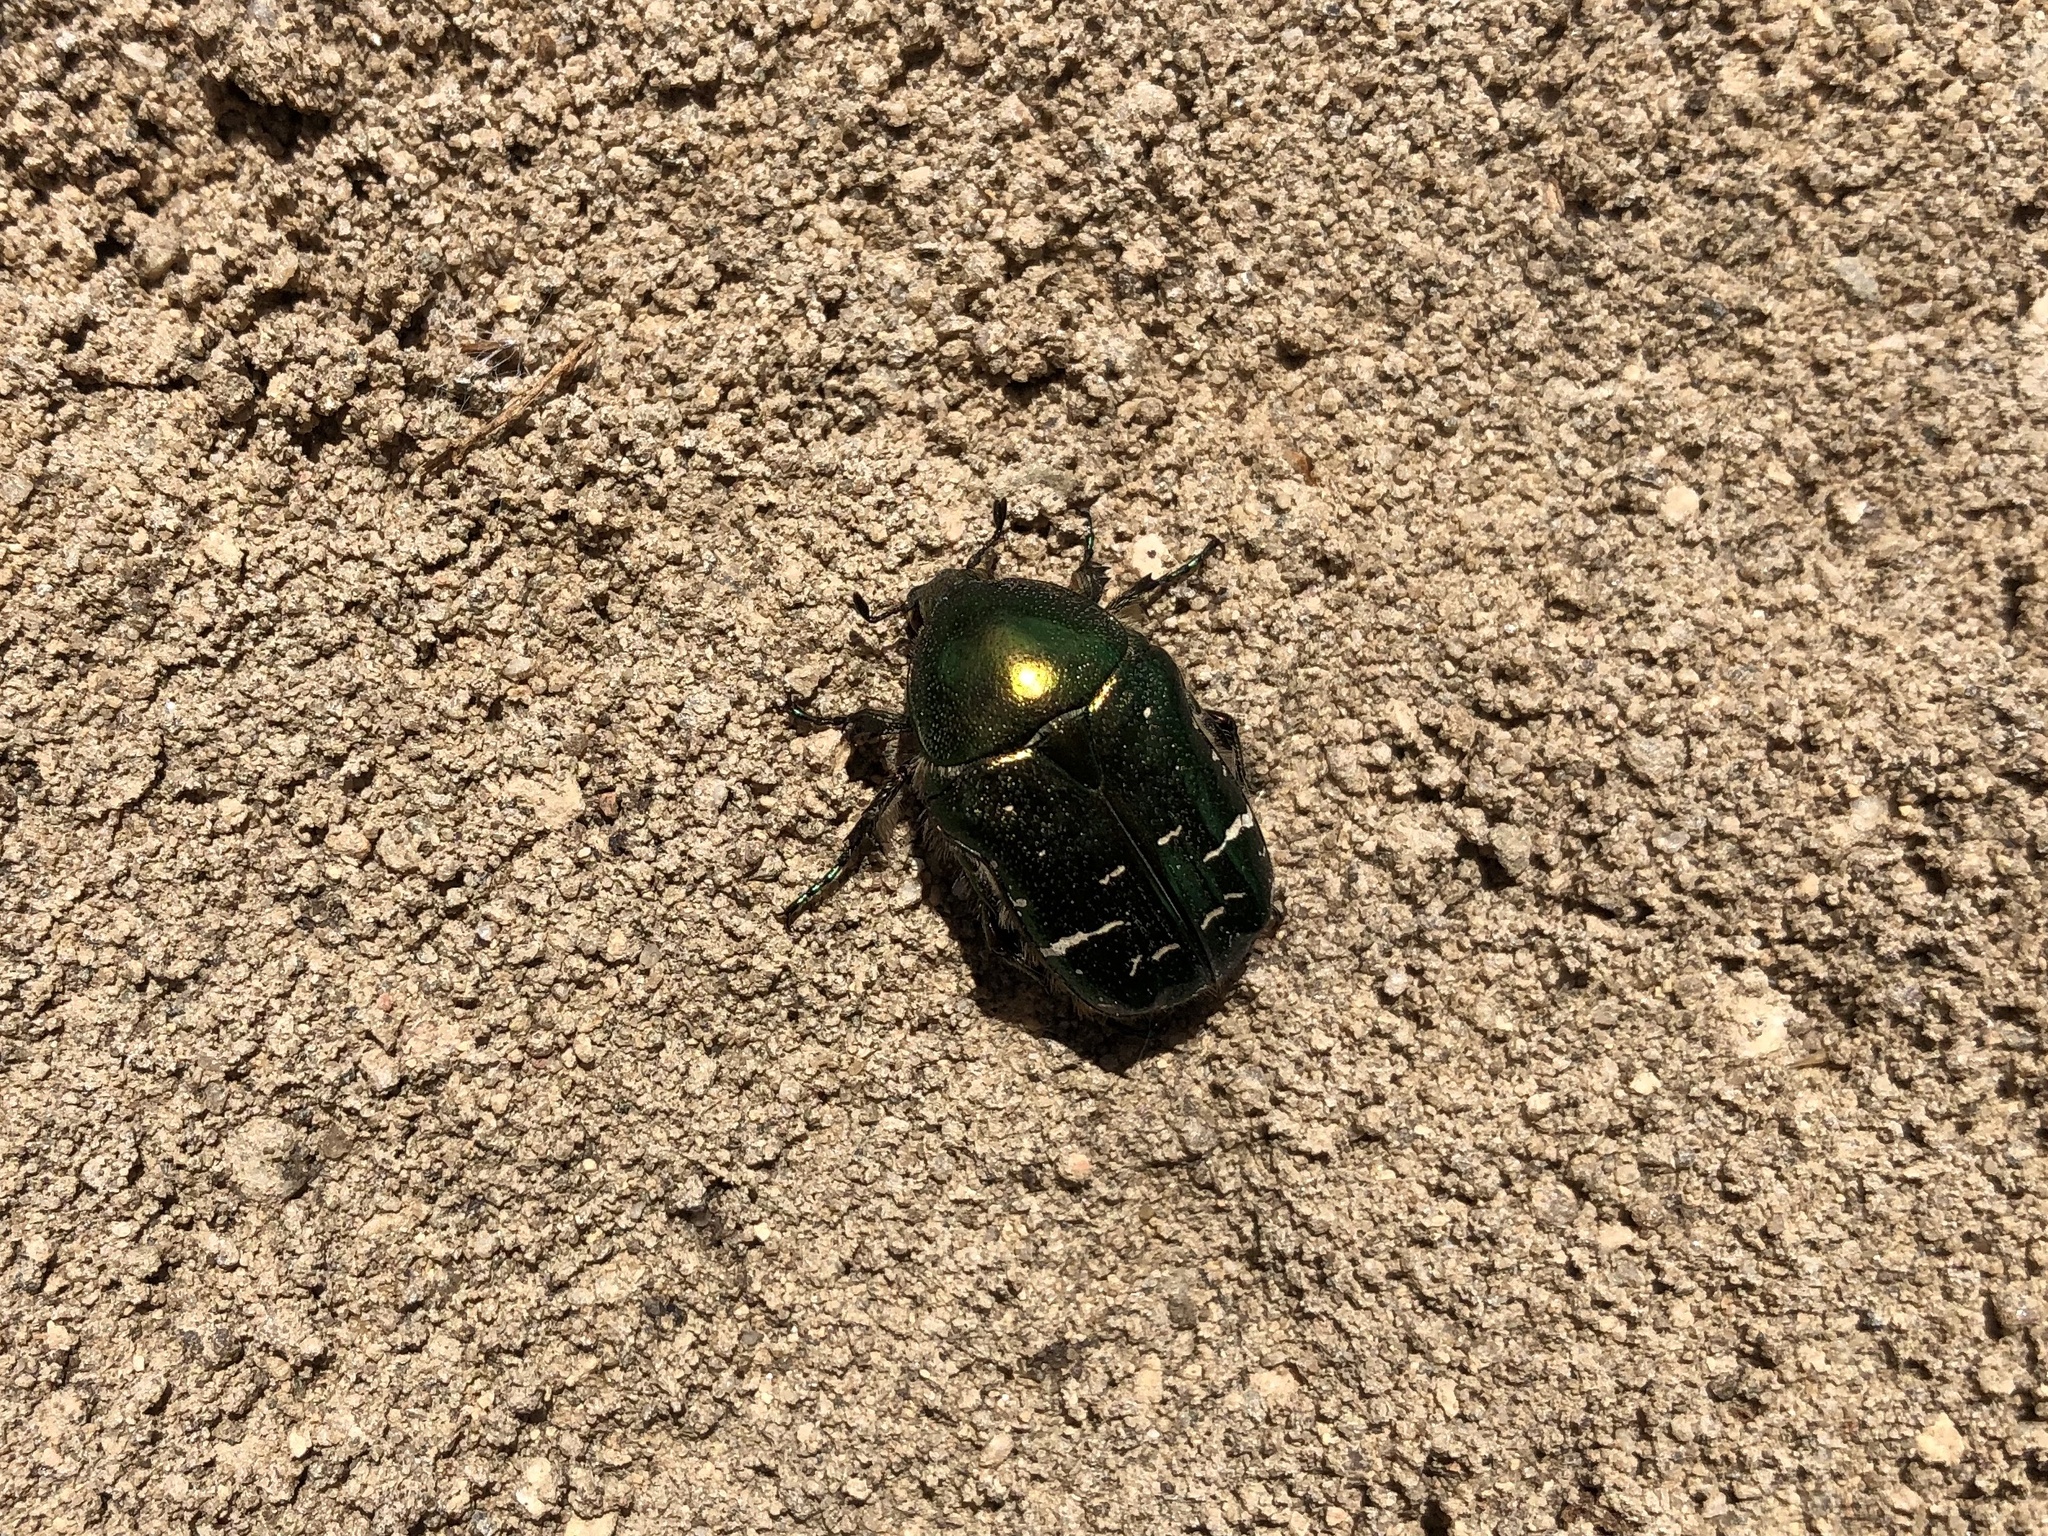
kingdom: Animalia
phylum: Arthropoda
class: Insecta
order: Coleoptera
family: Scarabaeidae
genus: Cetonia
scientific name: Cetonia aurata
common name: Rose chafer
